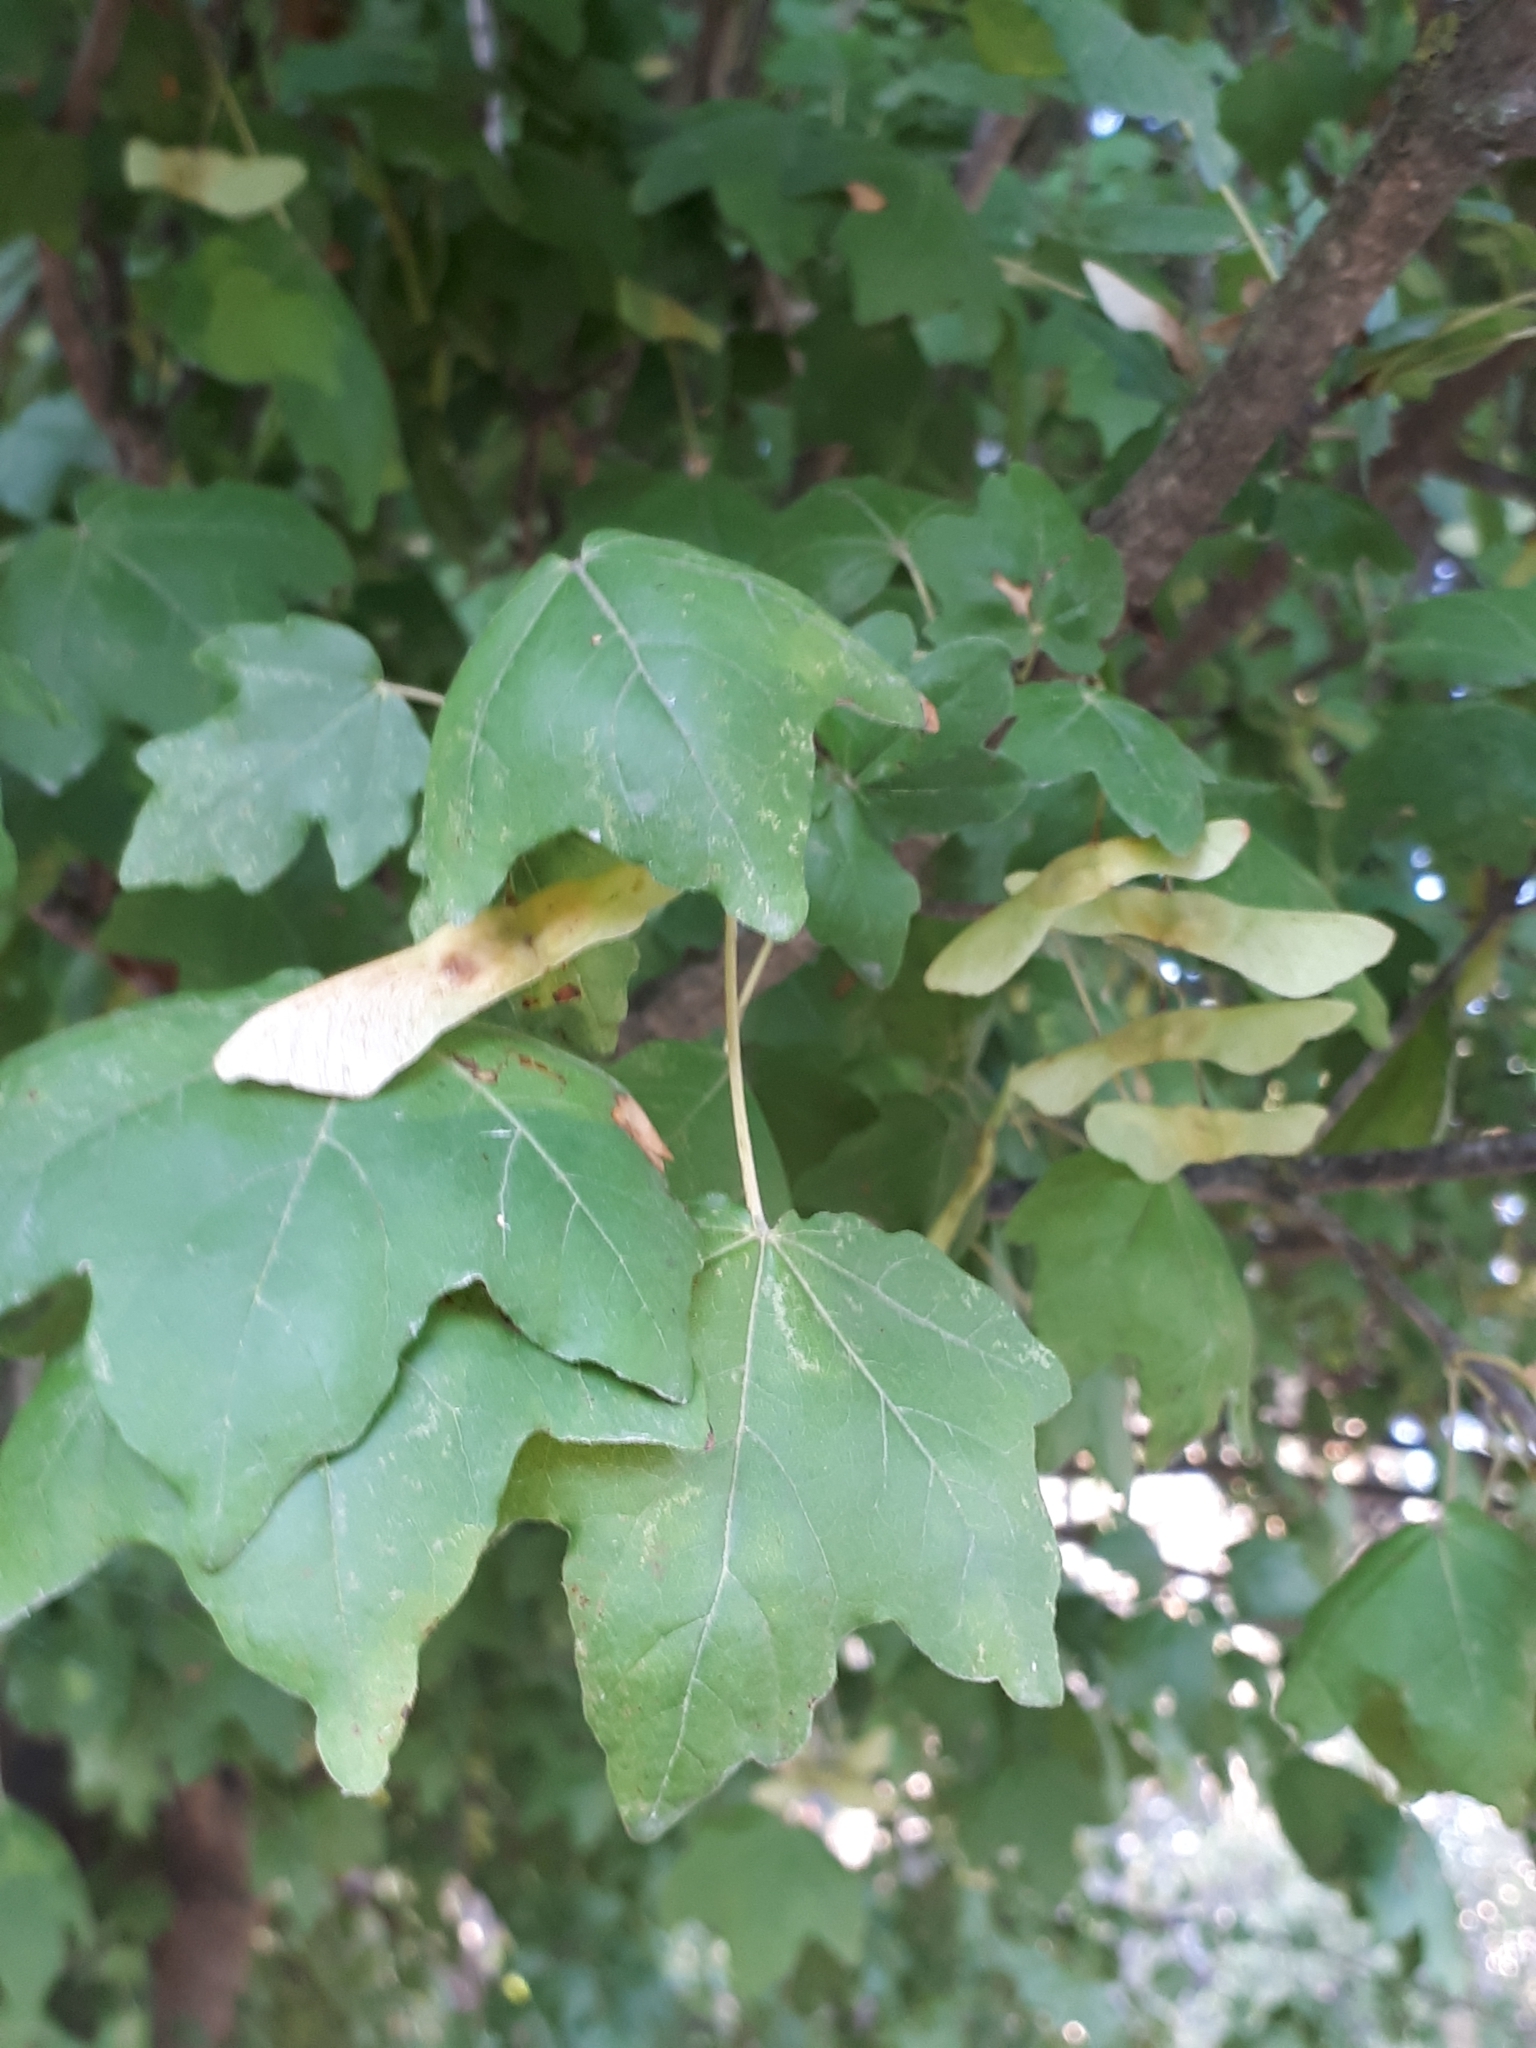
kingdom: Plantae
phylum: Tracheophyta
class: Magnoliopsida
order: Sapindales
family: Sapindaceae
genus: Acer
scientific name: Acer campestre
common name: Field maple
